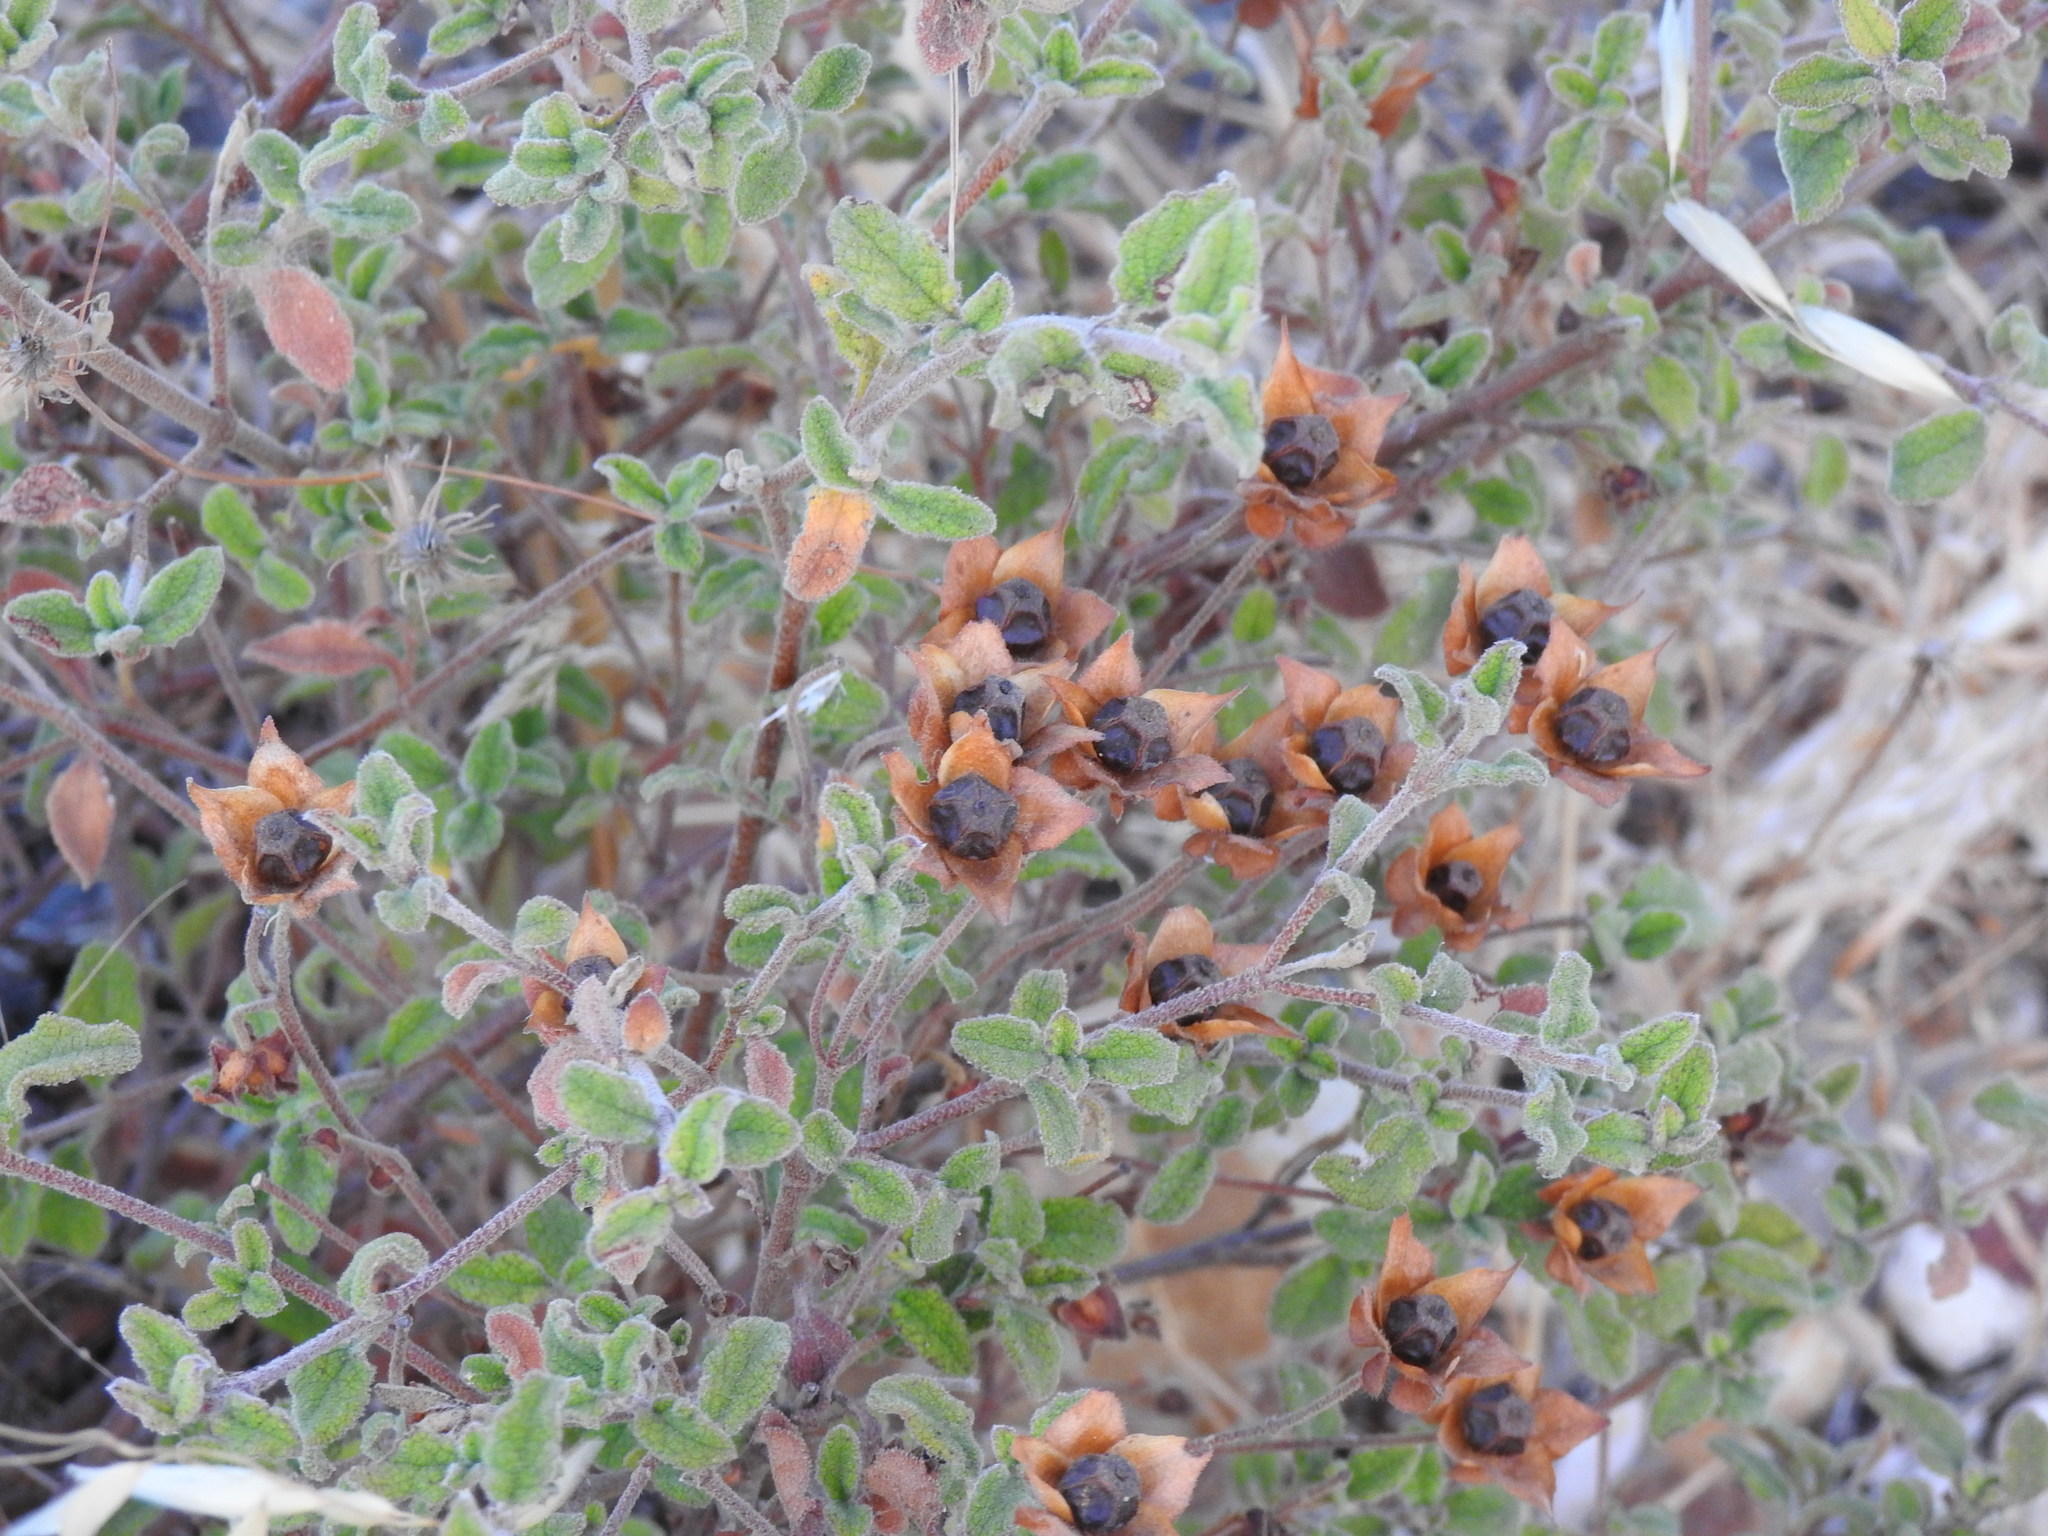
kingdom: Plantae
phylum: Tracheophyta
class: Magnoliopsida
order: Malvales
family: Cistaceae
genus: Cistus
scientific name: Cistus salviifolius
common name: Salvia cistus
